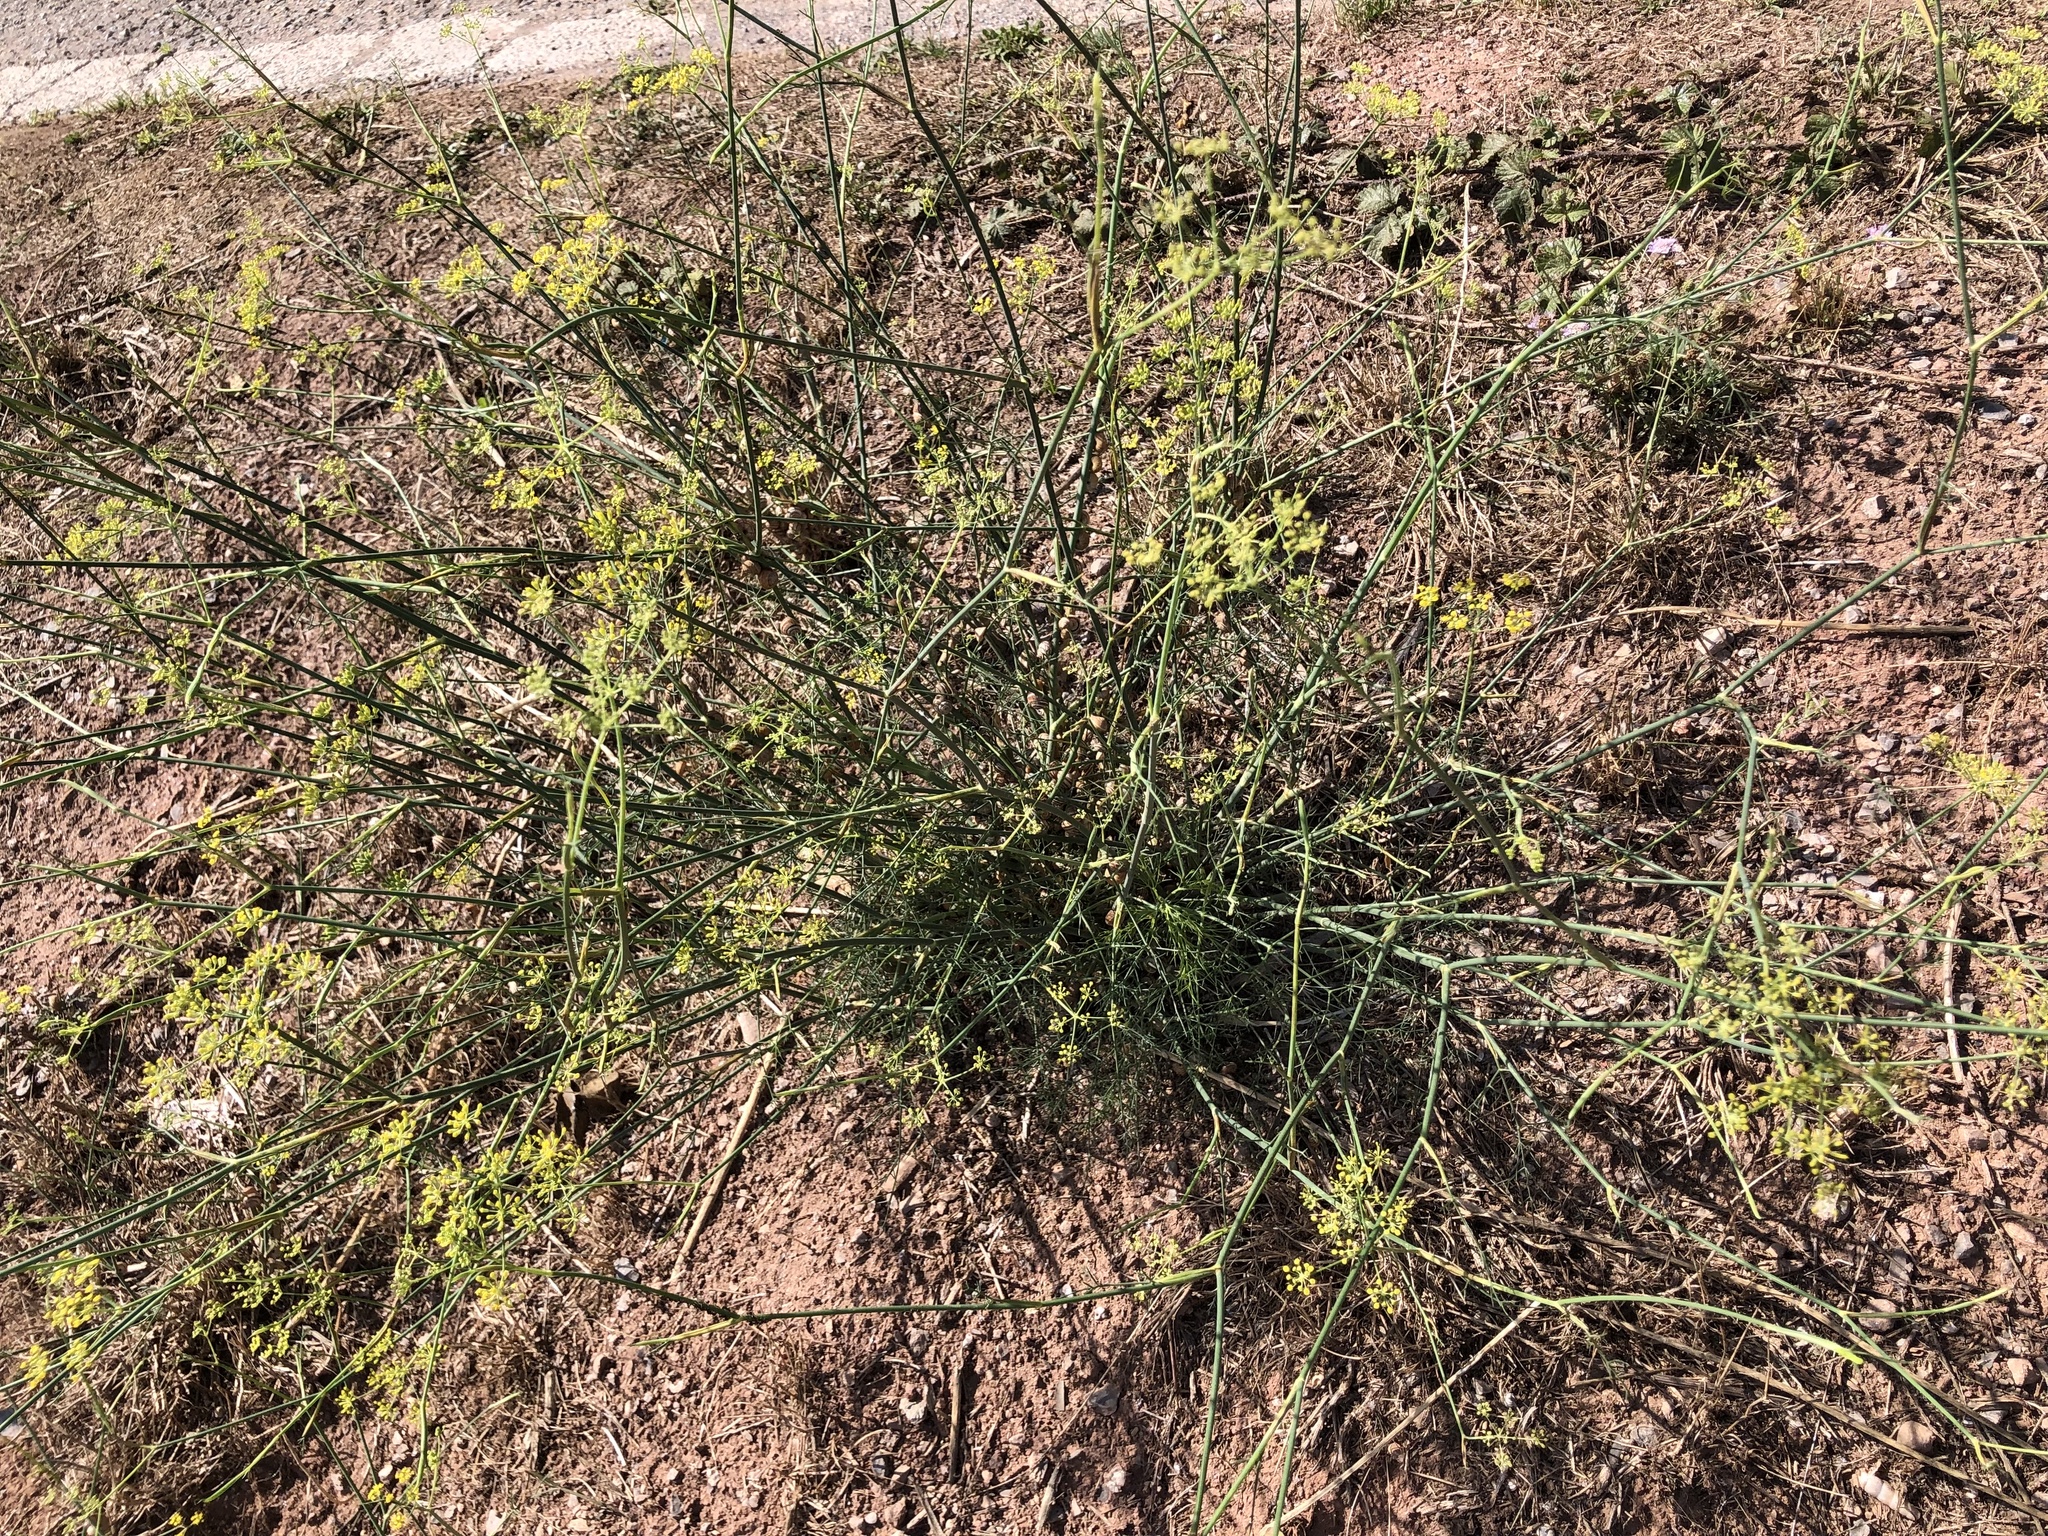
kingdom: Plantae
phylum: Tracheophyta
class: Magnoliopsida
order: Apiales
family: Apiaceae
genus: Foeniculum
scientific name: Foeniculum vulgare
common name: Fennel
